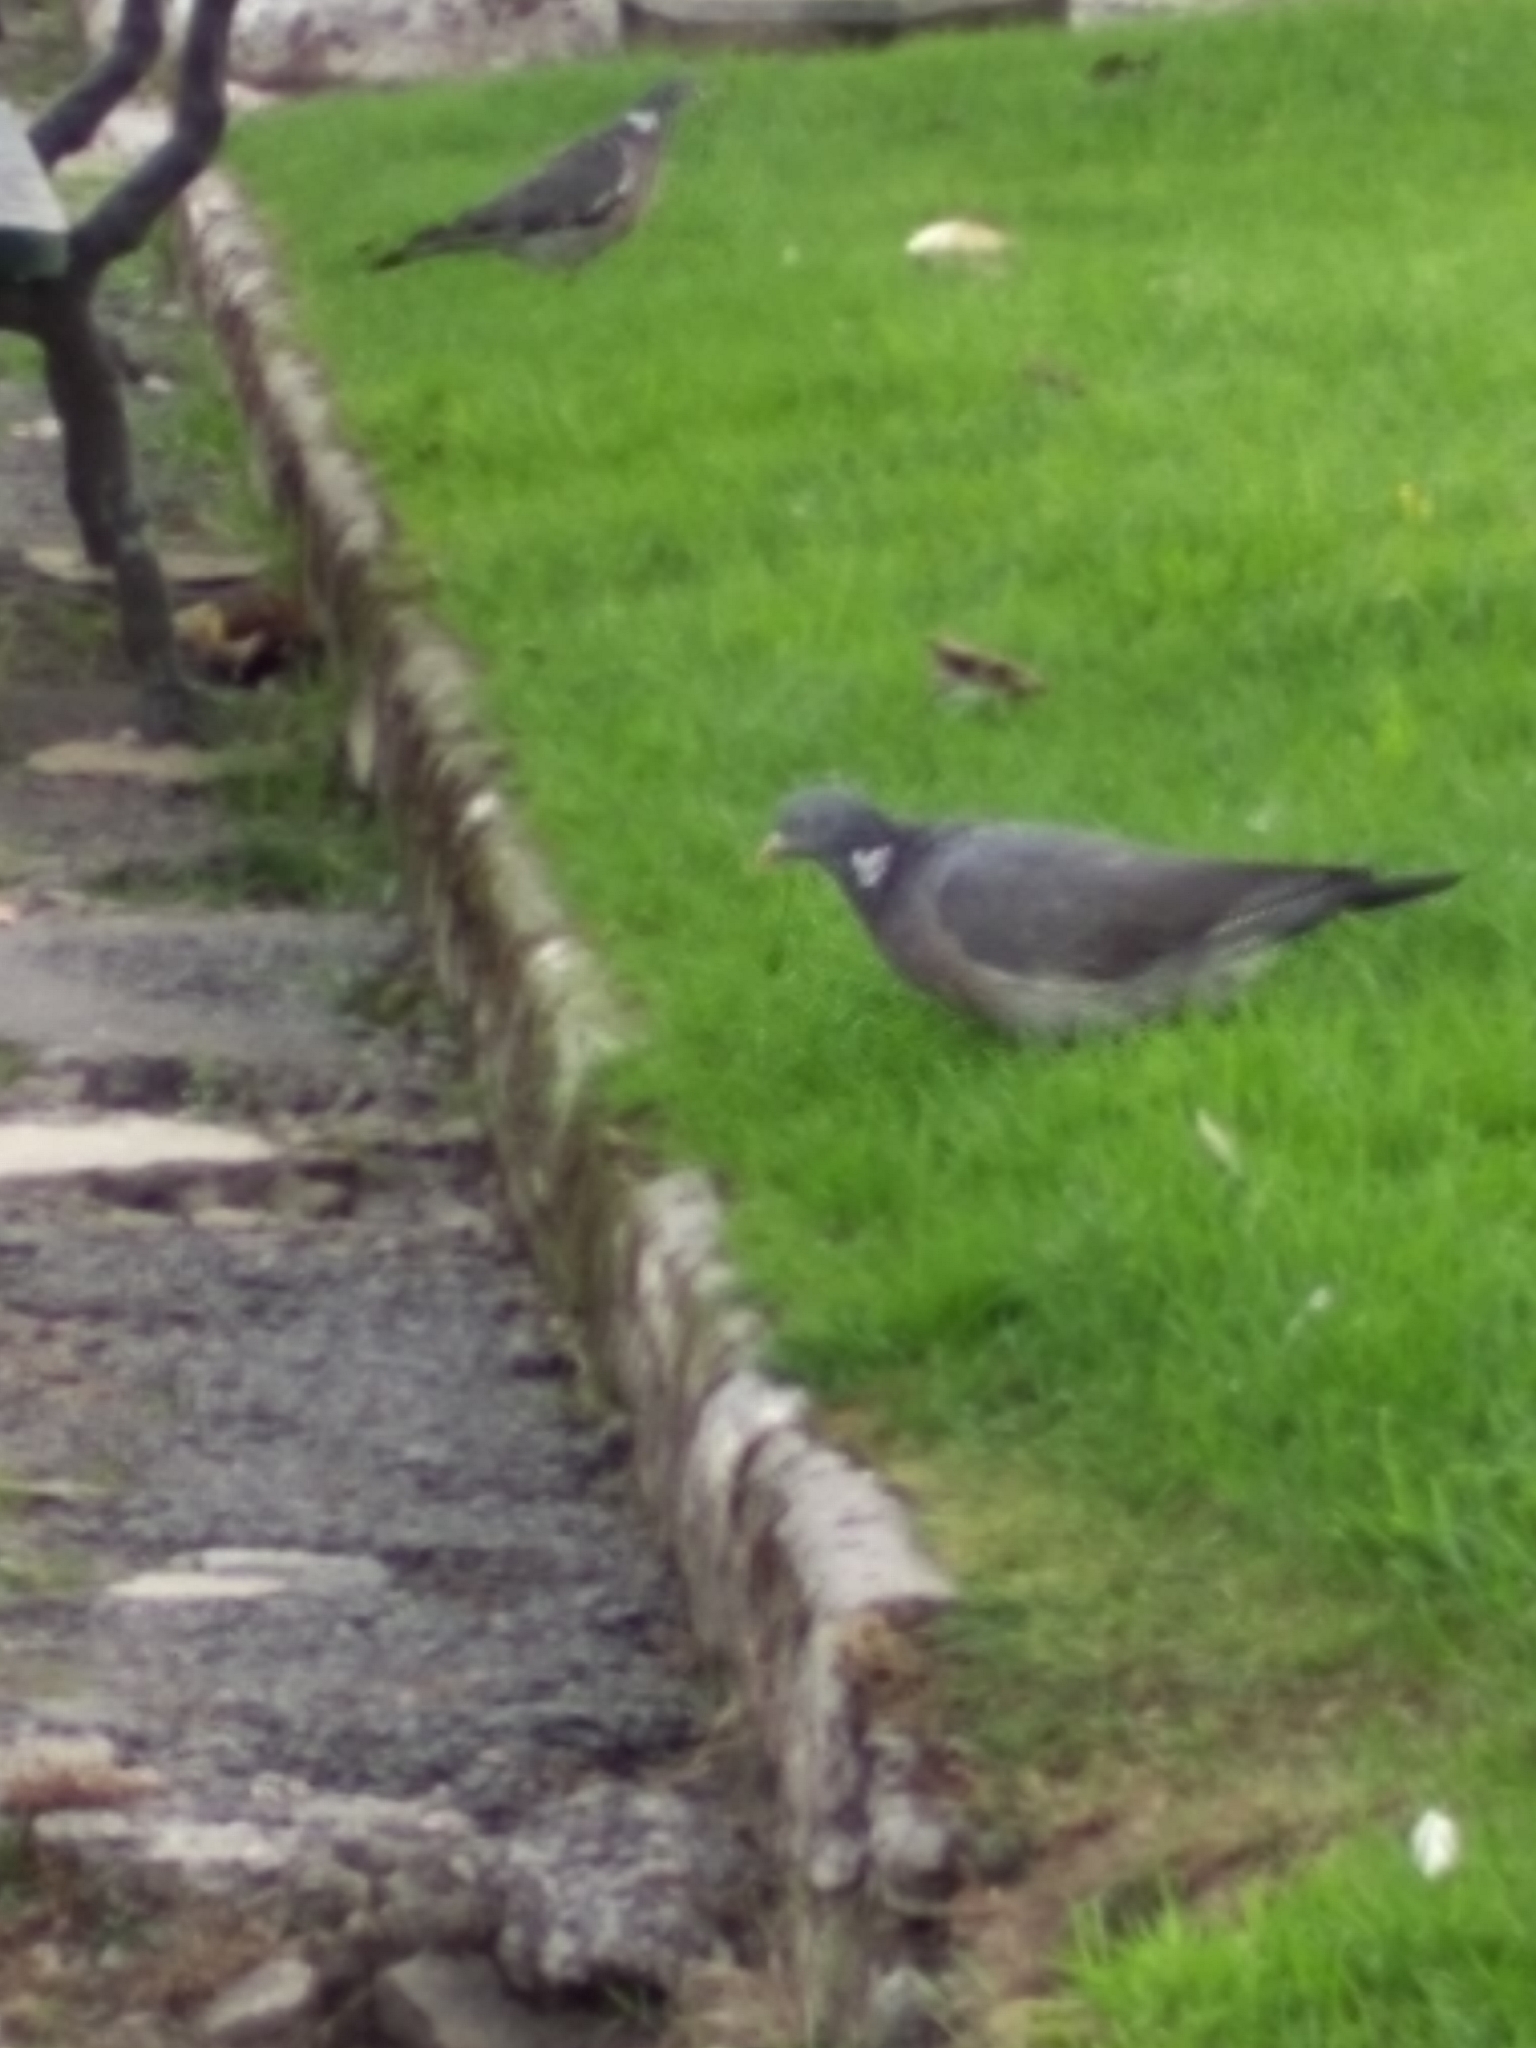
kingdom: Animalia
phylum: Chordata
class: Aves
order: Columbiformes
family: Columbidae
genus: Columba
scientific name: Columba palumbus
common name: Common wood pigeon
